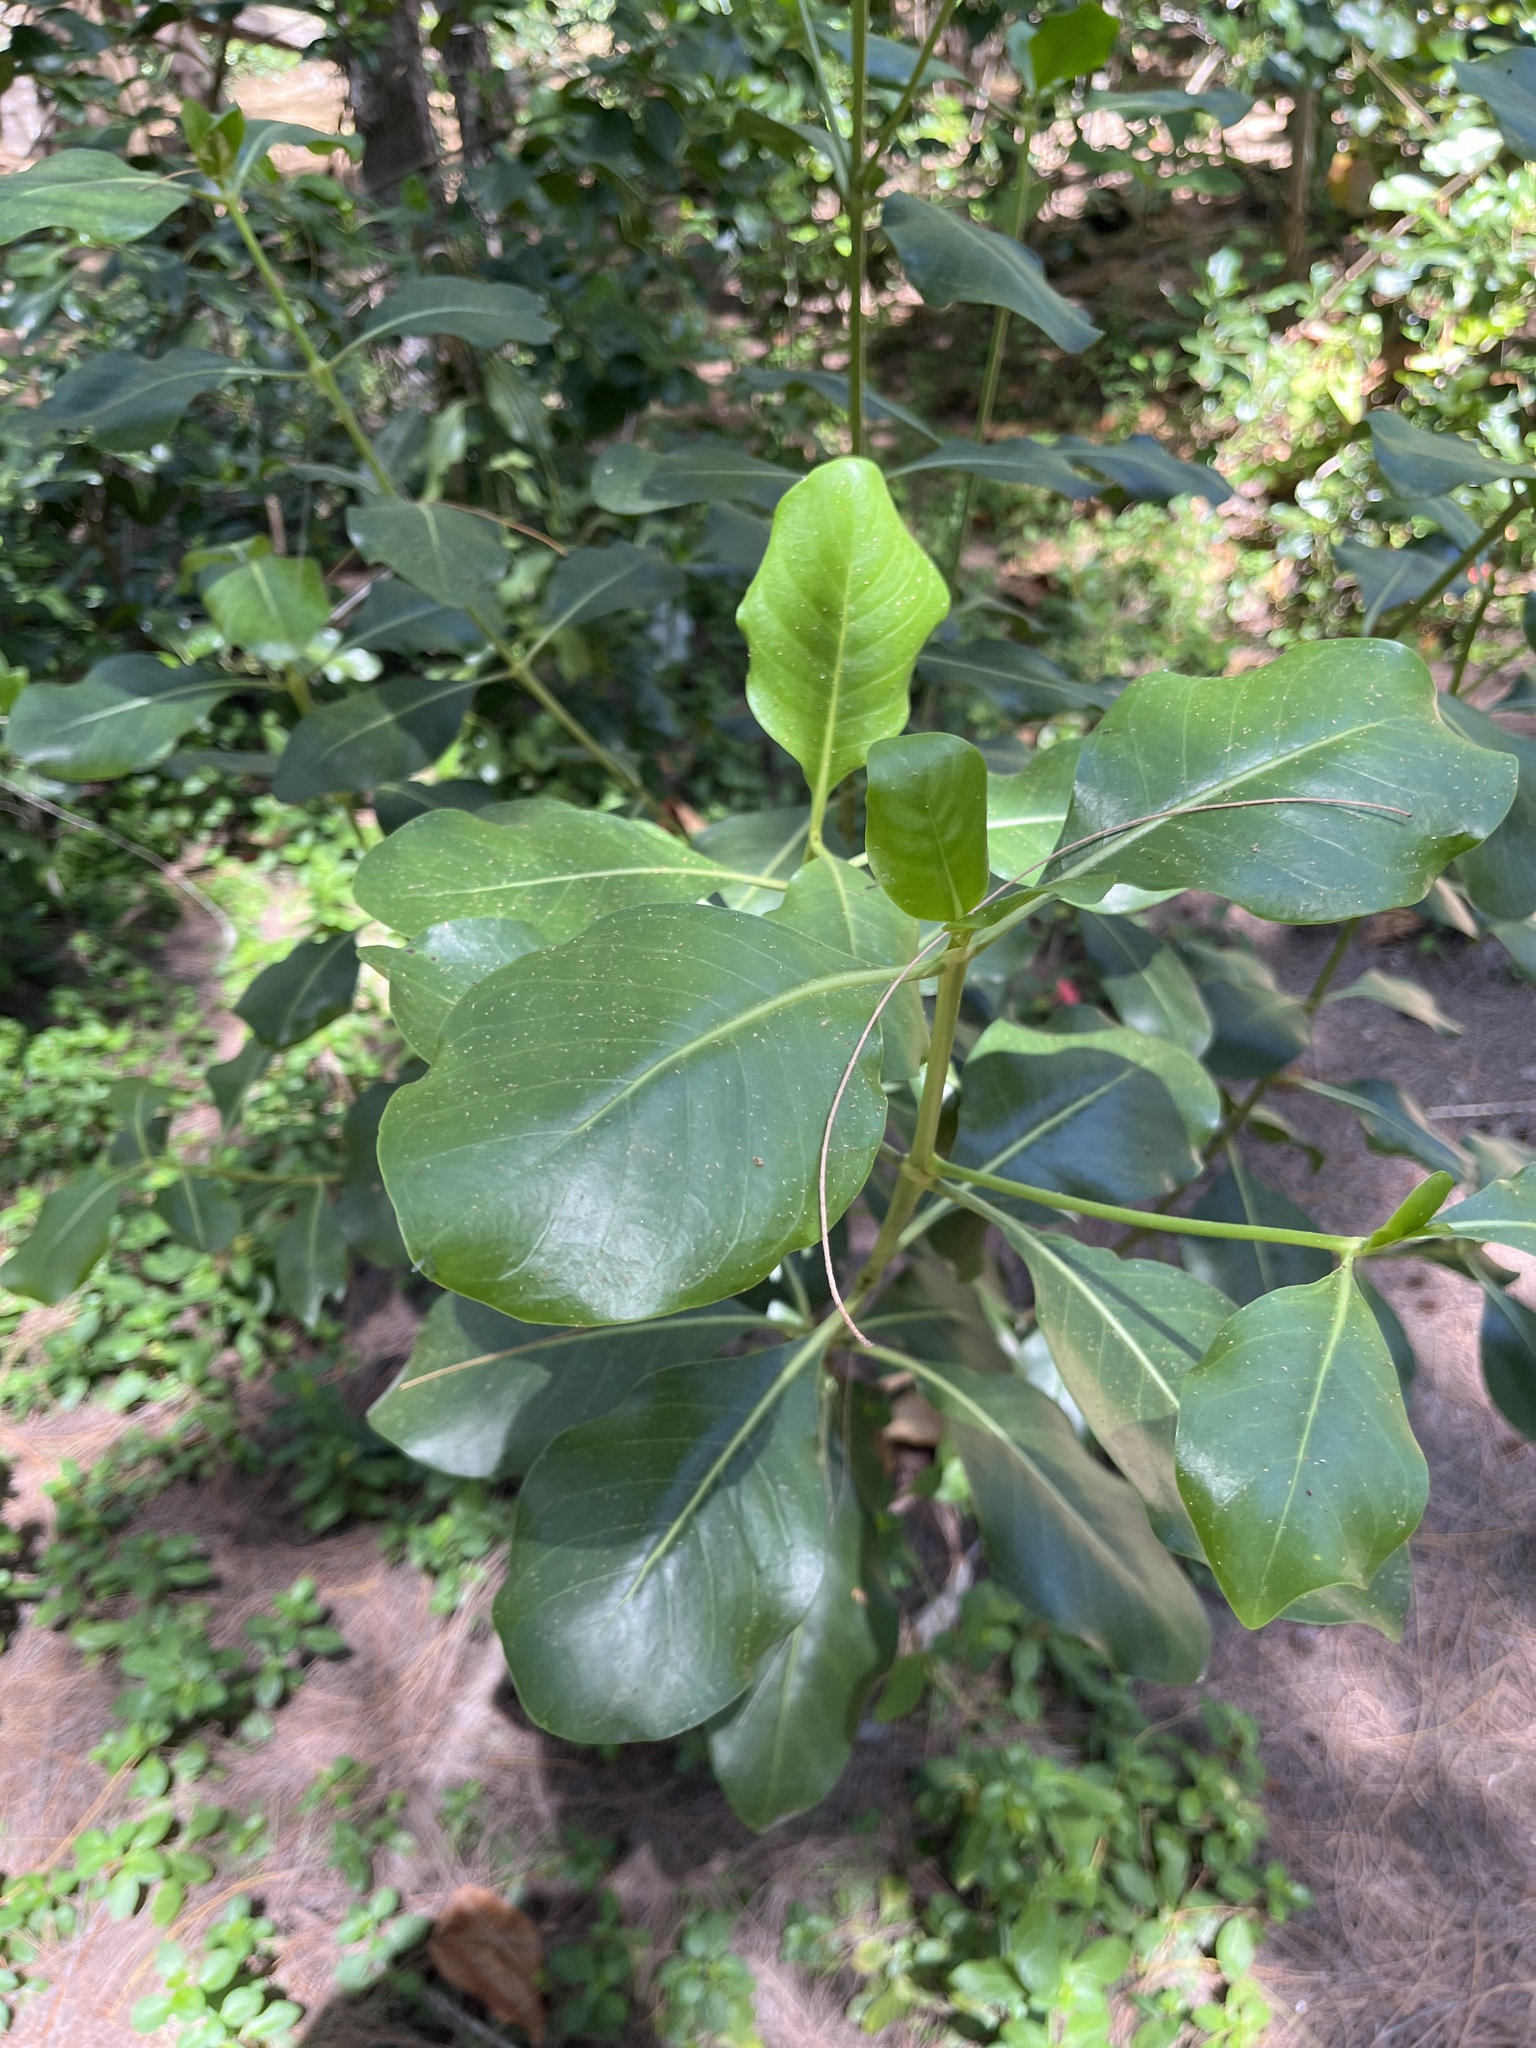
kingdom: Plantae
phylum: Tracheophyta
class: Magnoliopsida
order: Gentianales
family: Rubiaceae
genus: Erithalis
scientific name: Erithalis fruticosa
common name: Candlewood
